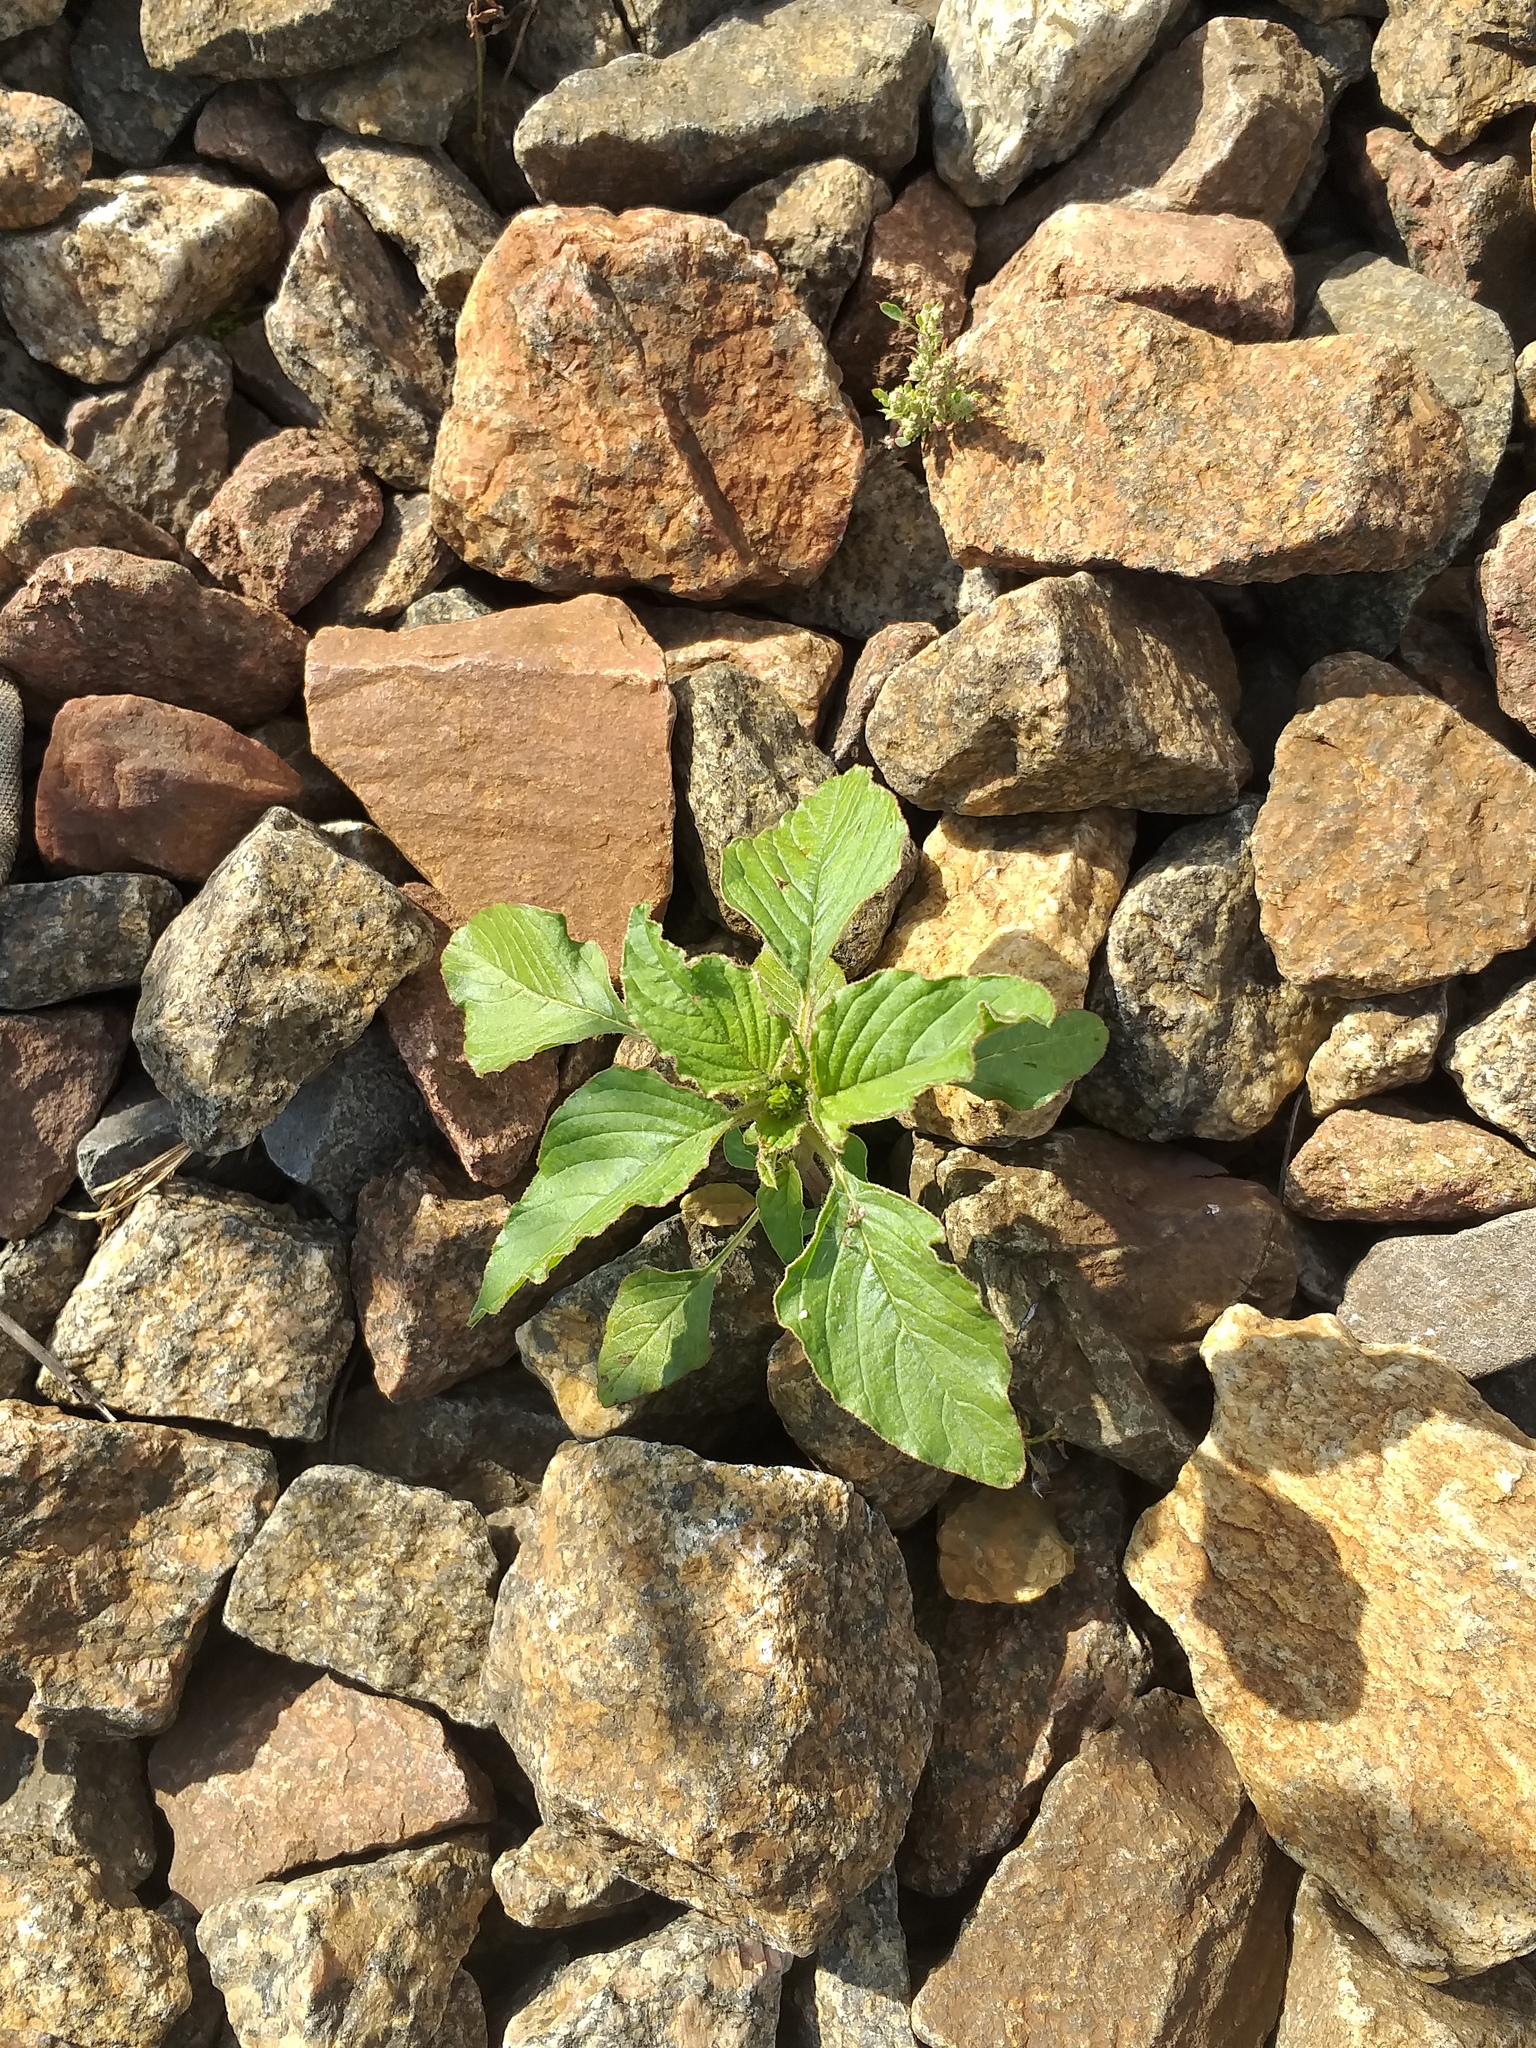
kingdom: Plantae
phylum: Tracheophyta
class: Magnoliopsida
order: Caryophyllales
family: Amaranthaceae
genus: Amaranthus
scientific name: Amaranthus retroflexus
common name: Redroot amaranth
